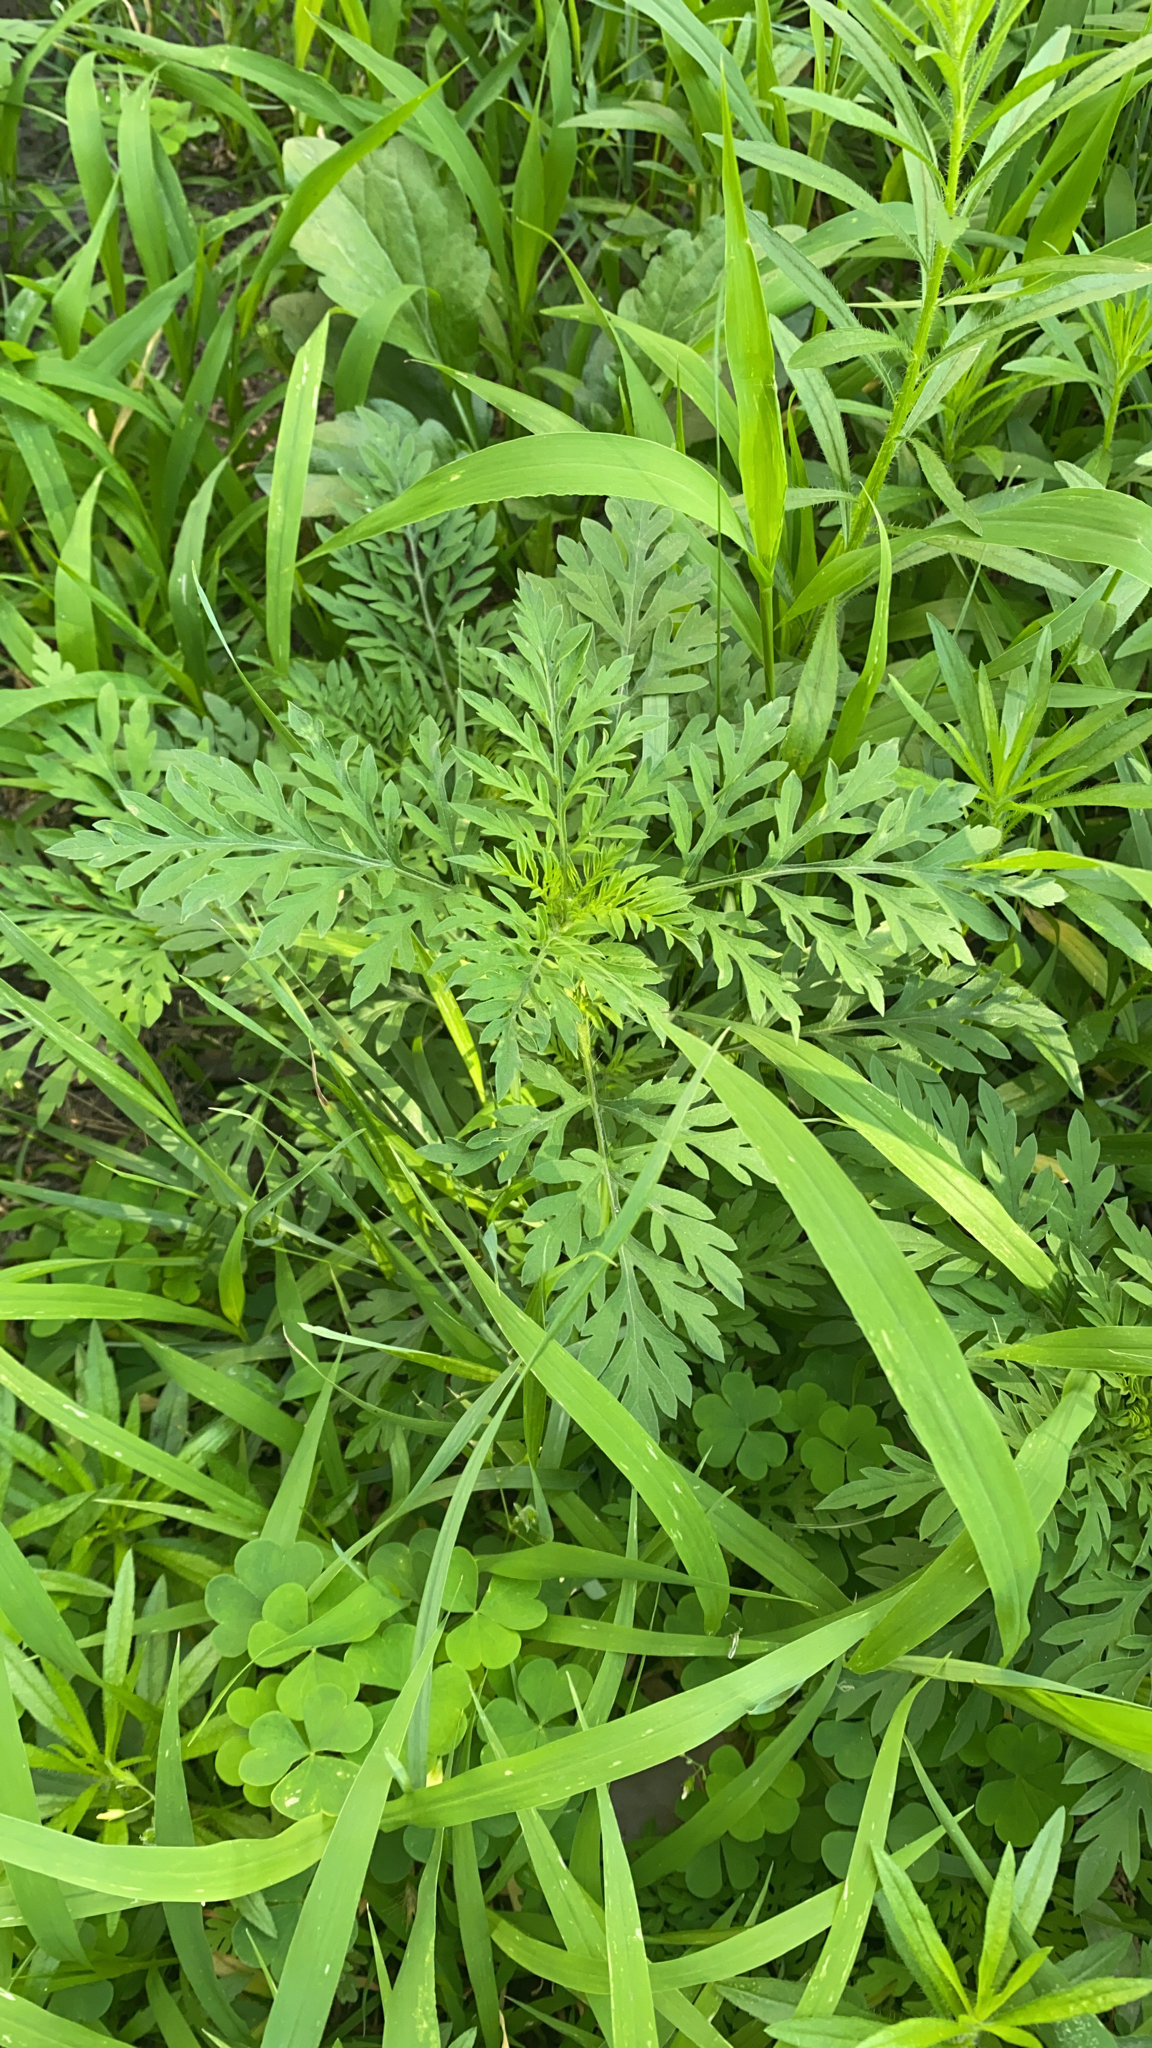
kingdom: Plantae
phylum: Tracheophyta
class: Magnoliopsida
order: Asterales
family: Asteraceae
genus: Ambrosia
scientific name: Ambrosia artemisiifolia
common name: Annual ragweed
